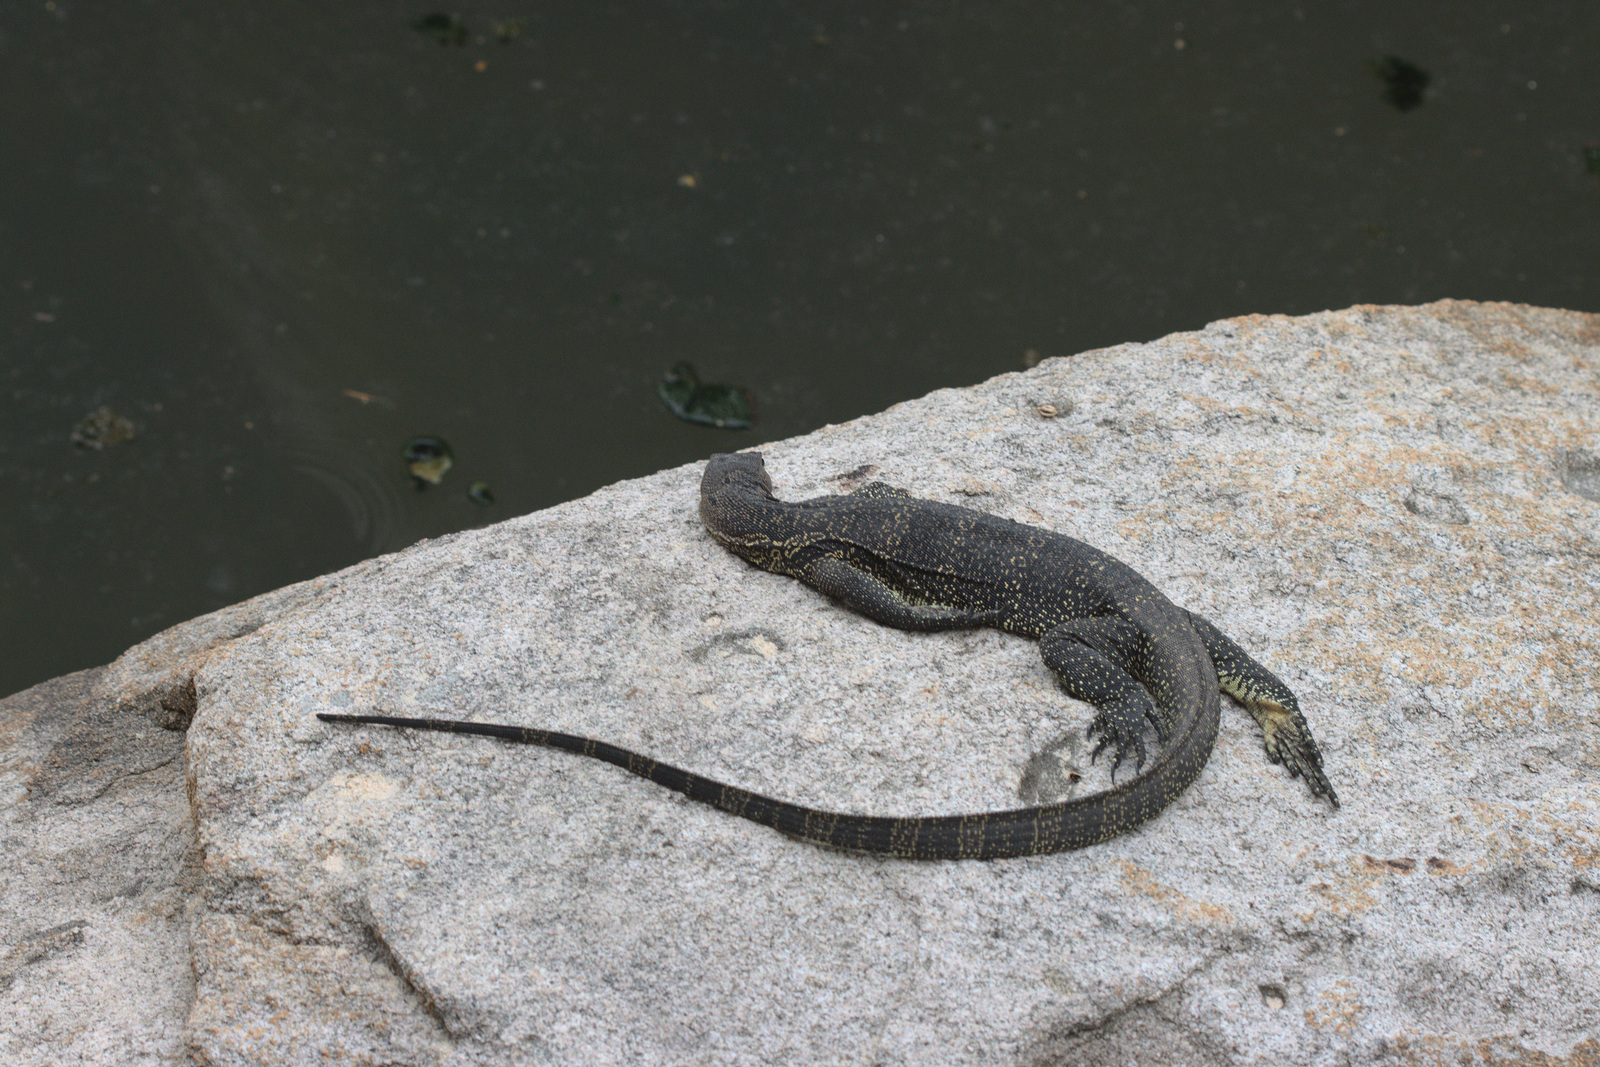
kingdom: Animalia
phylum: Chordata
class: Squamata
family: Varanidae
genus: Varanus
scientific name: Varanus salvator
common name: Common water monitor
